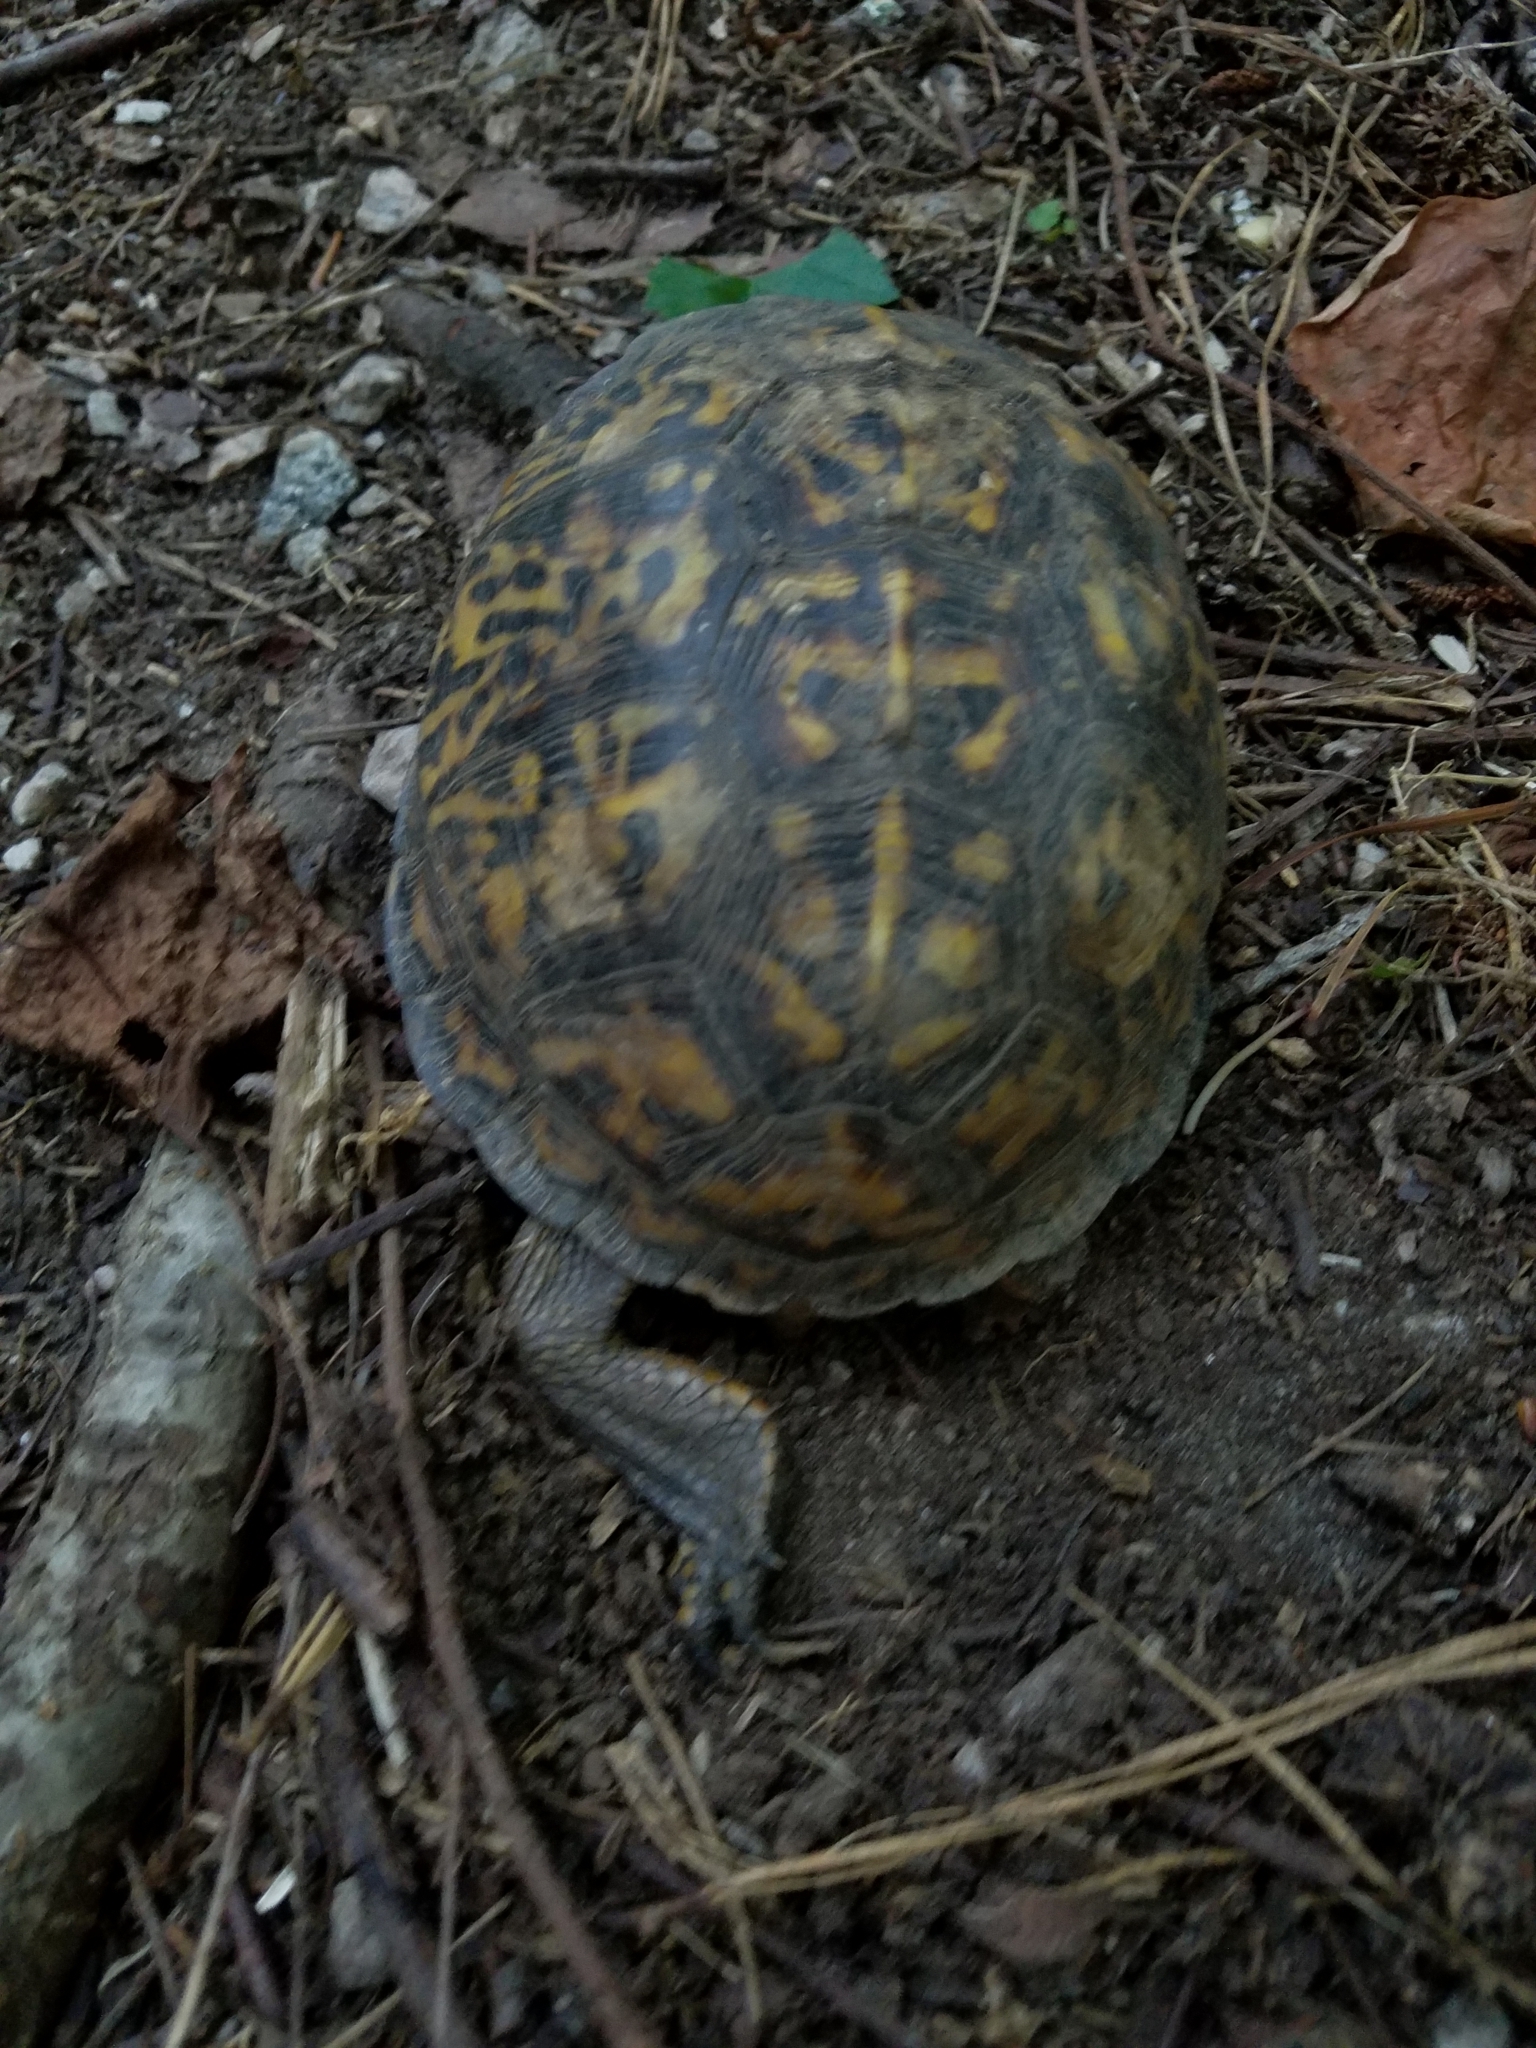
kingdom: Animalia
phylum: Chordata
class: Testudines
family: Emydidae
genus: Terrapene
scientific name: Terrapene carolina
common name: Common box turtle
